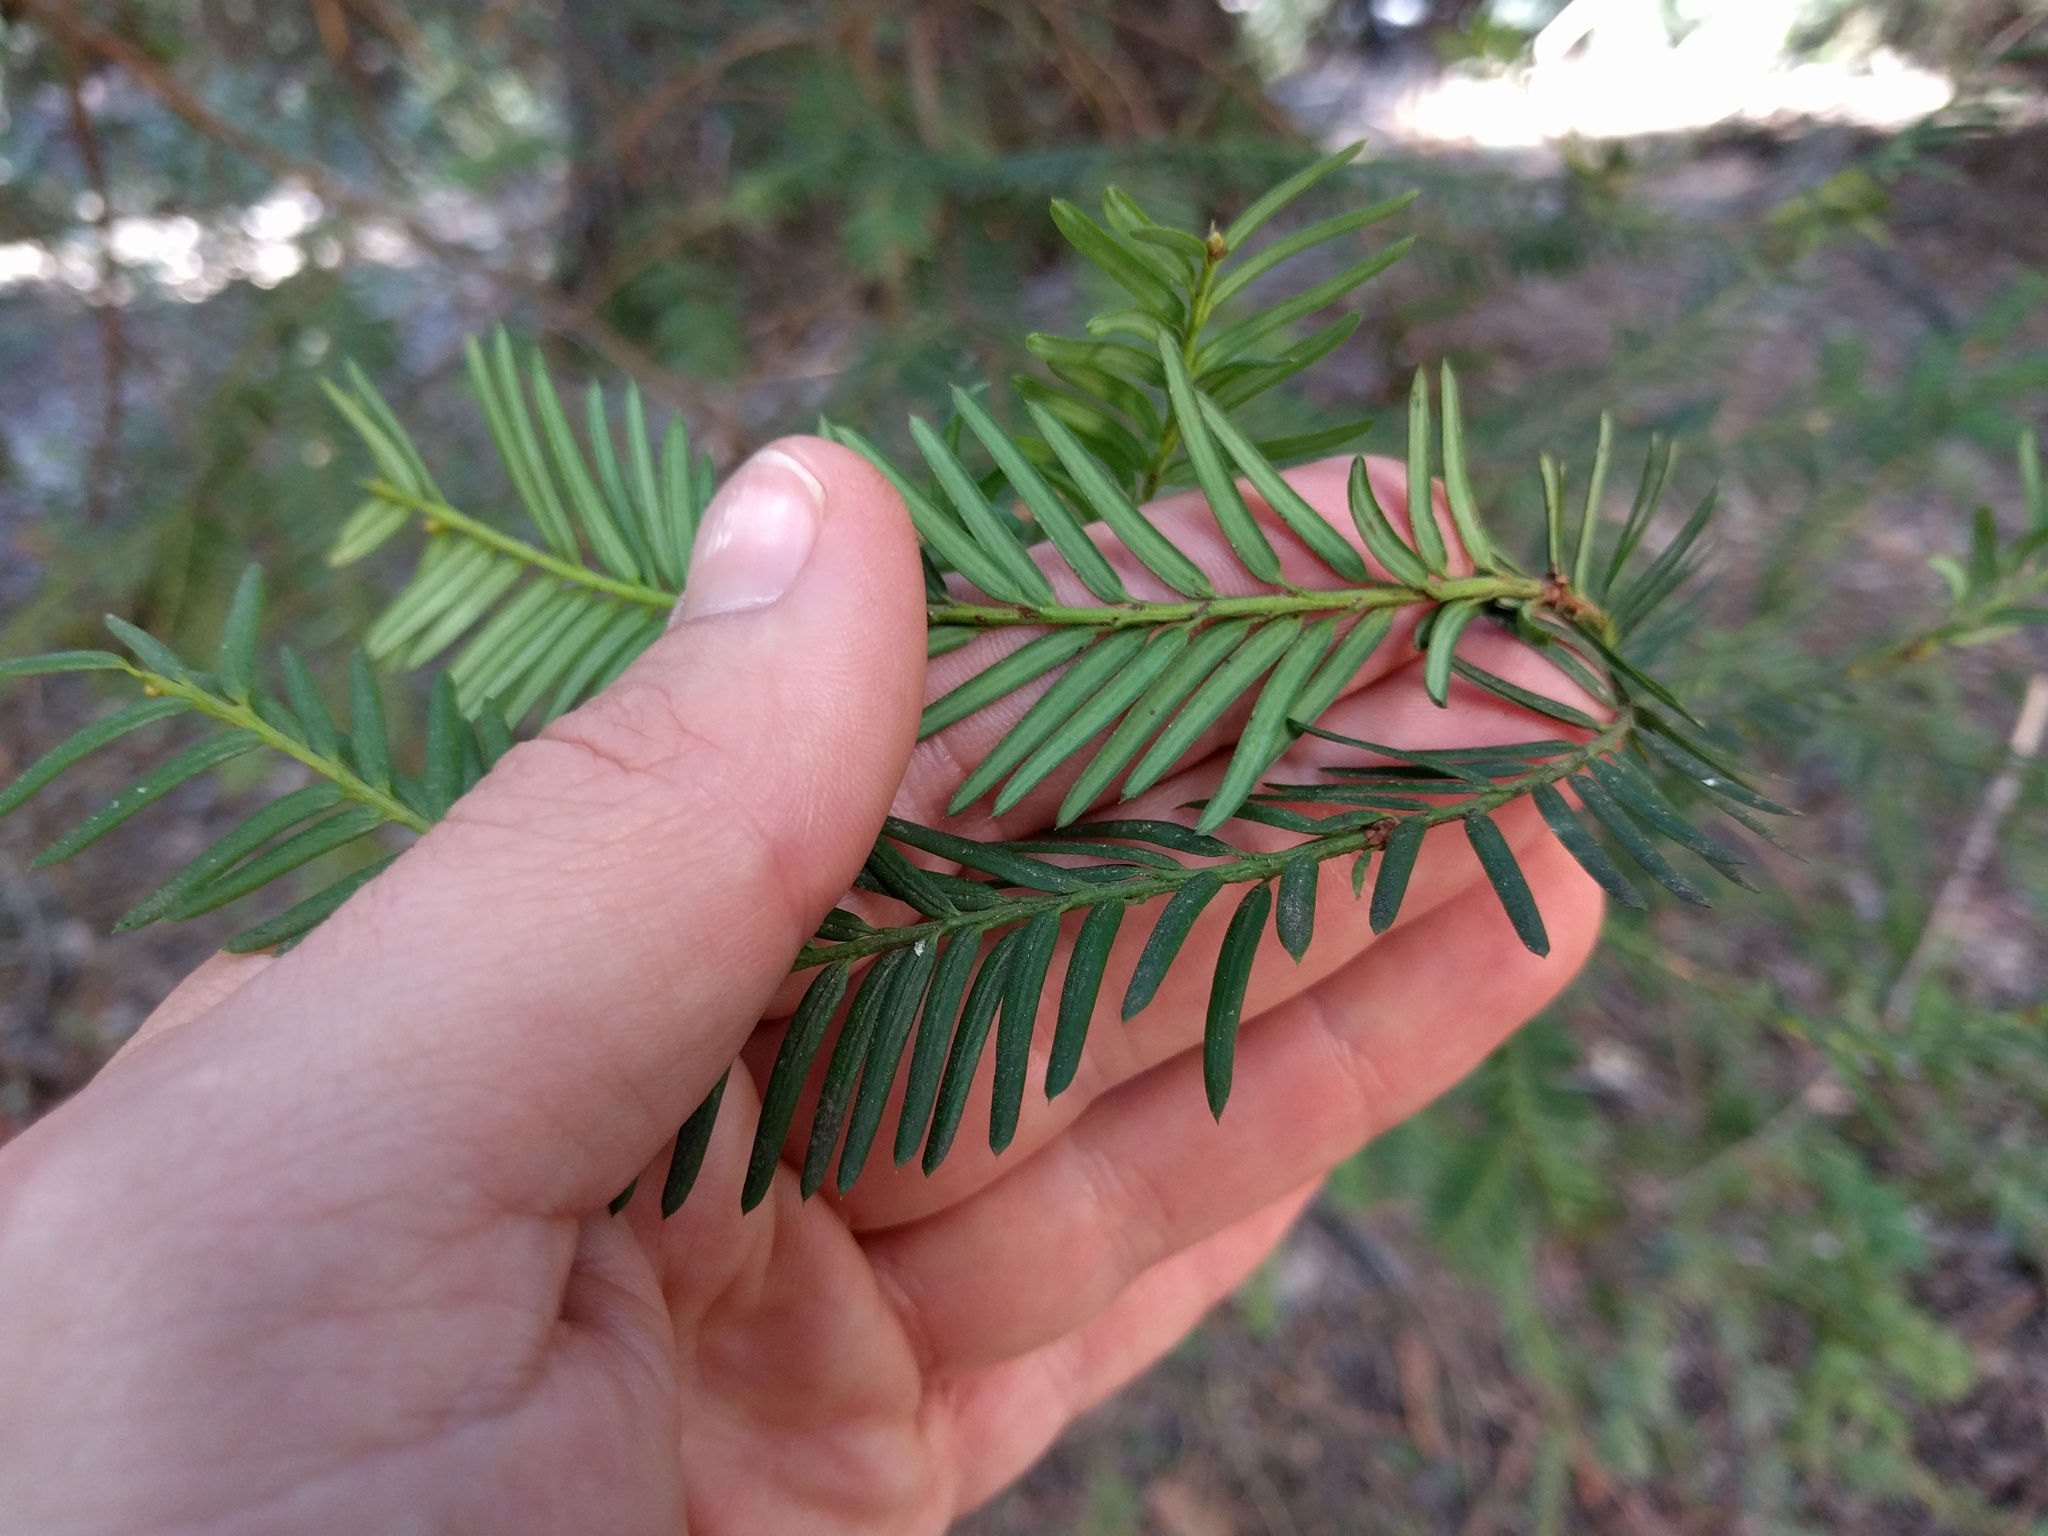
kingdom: Plantae
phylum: Tracheophyta
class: Pinopsida
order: Pinales
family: Taxaceae
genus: Taxus
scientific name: Taxus brevifolia
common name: Pacific yew
